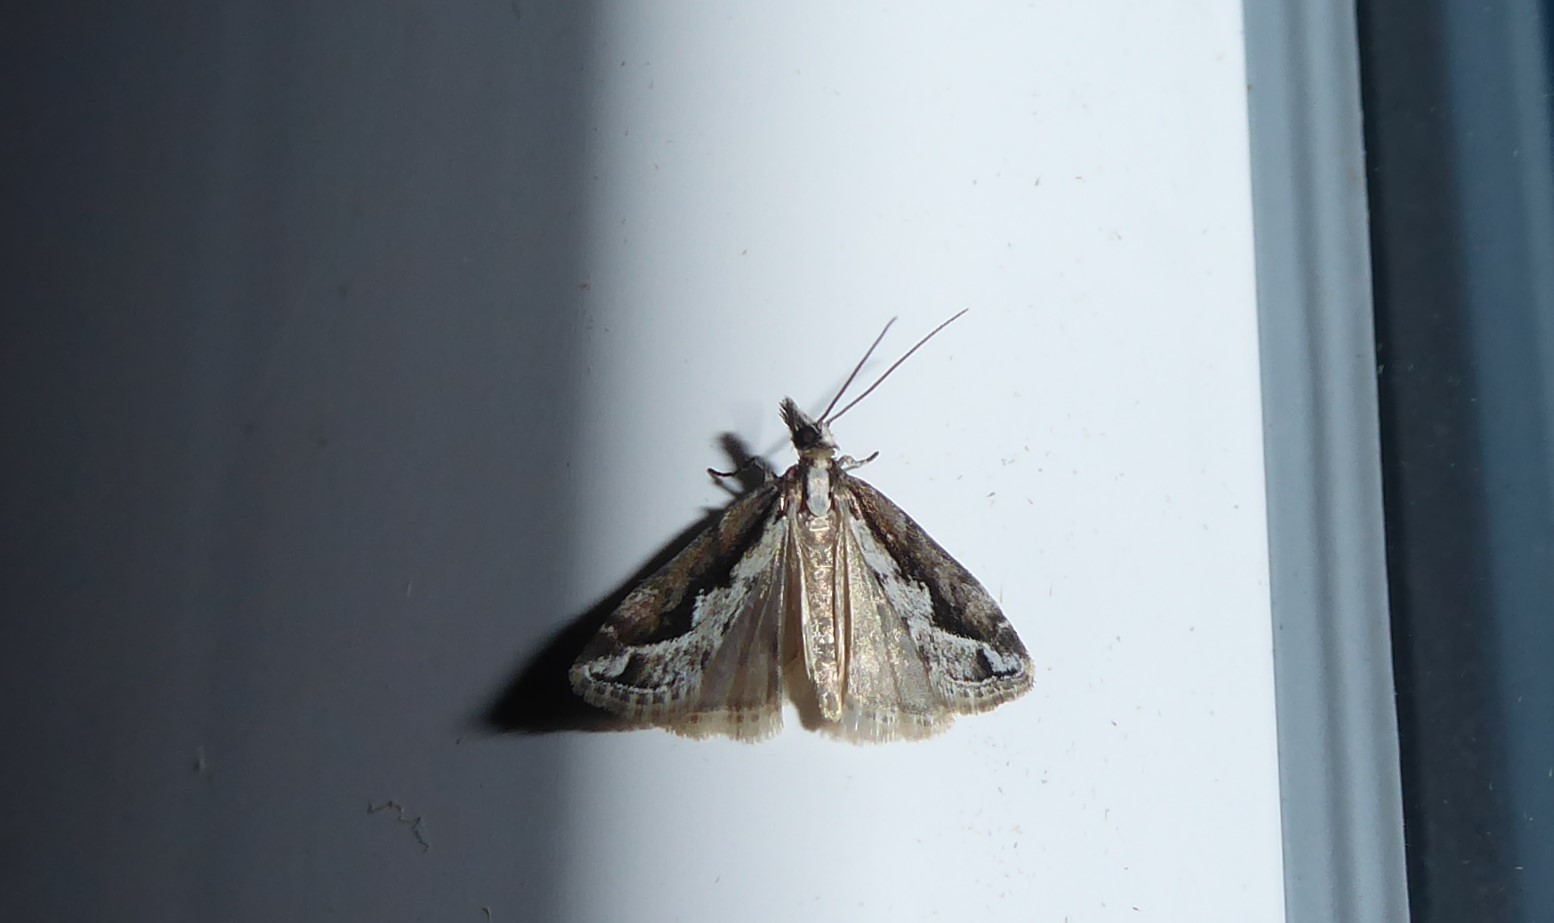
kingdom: Animalia
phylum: Arthropoda
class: Insecta
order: Lepidoptera
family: Crambidae
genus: Eudonia
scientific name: Eudonia steropaea
